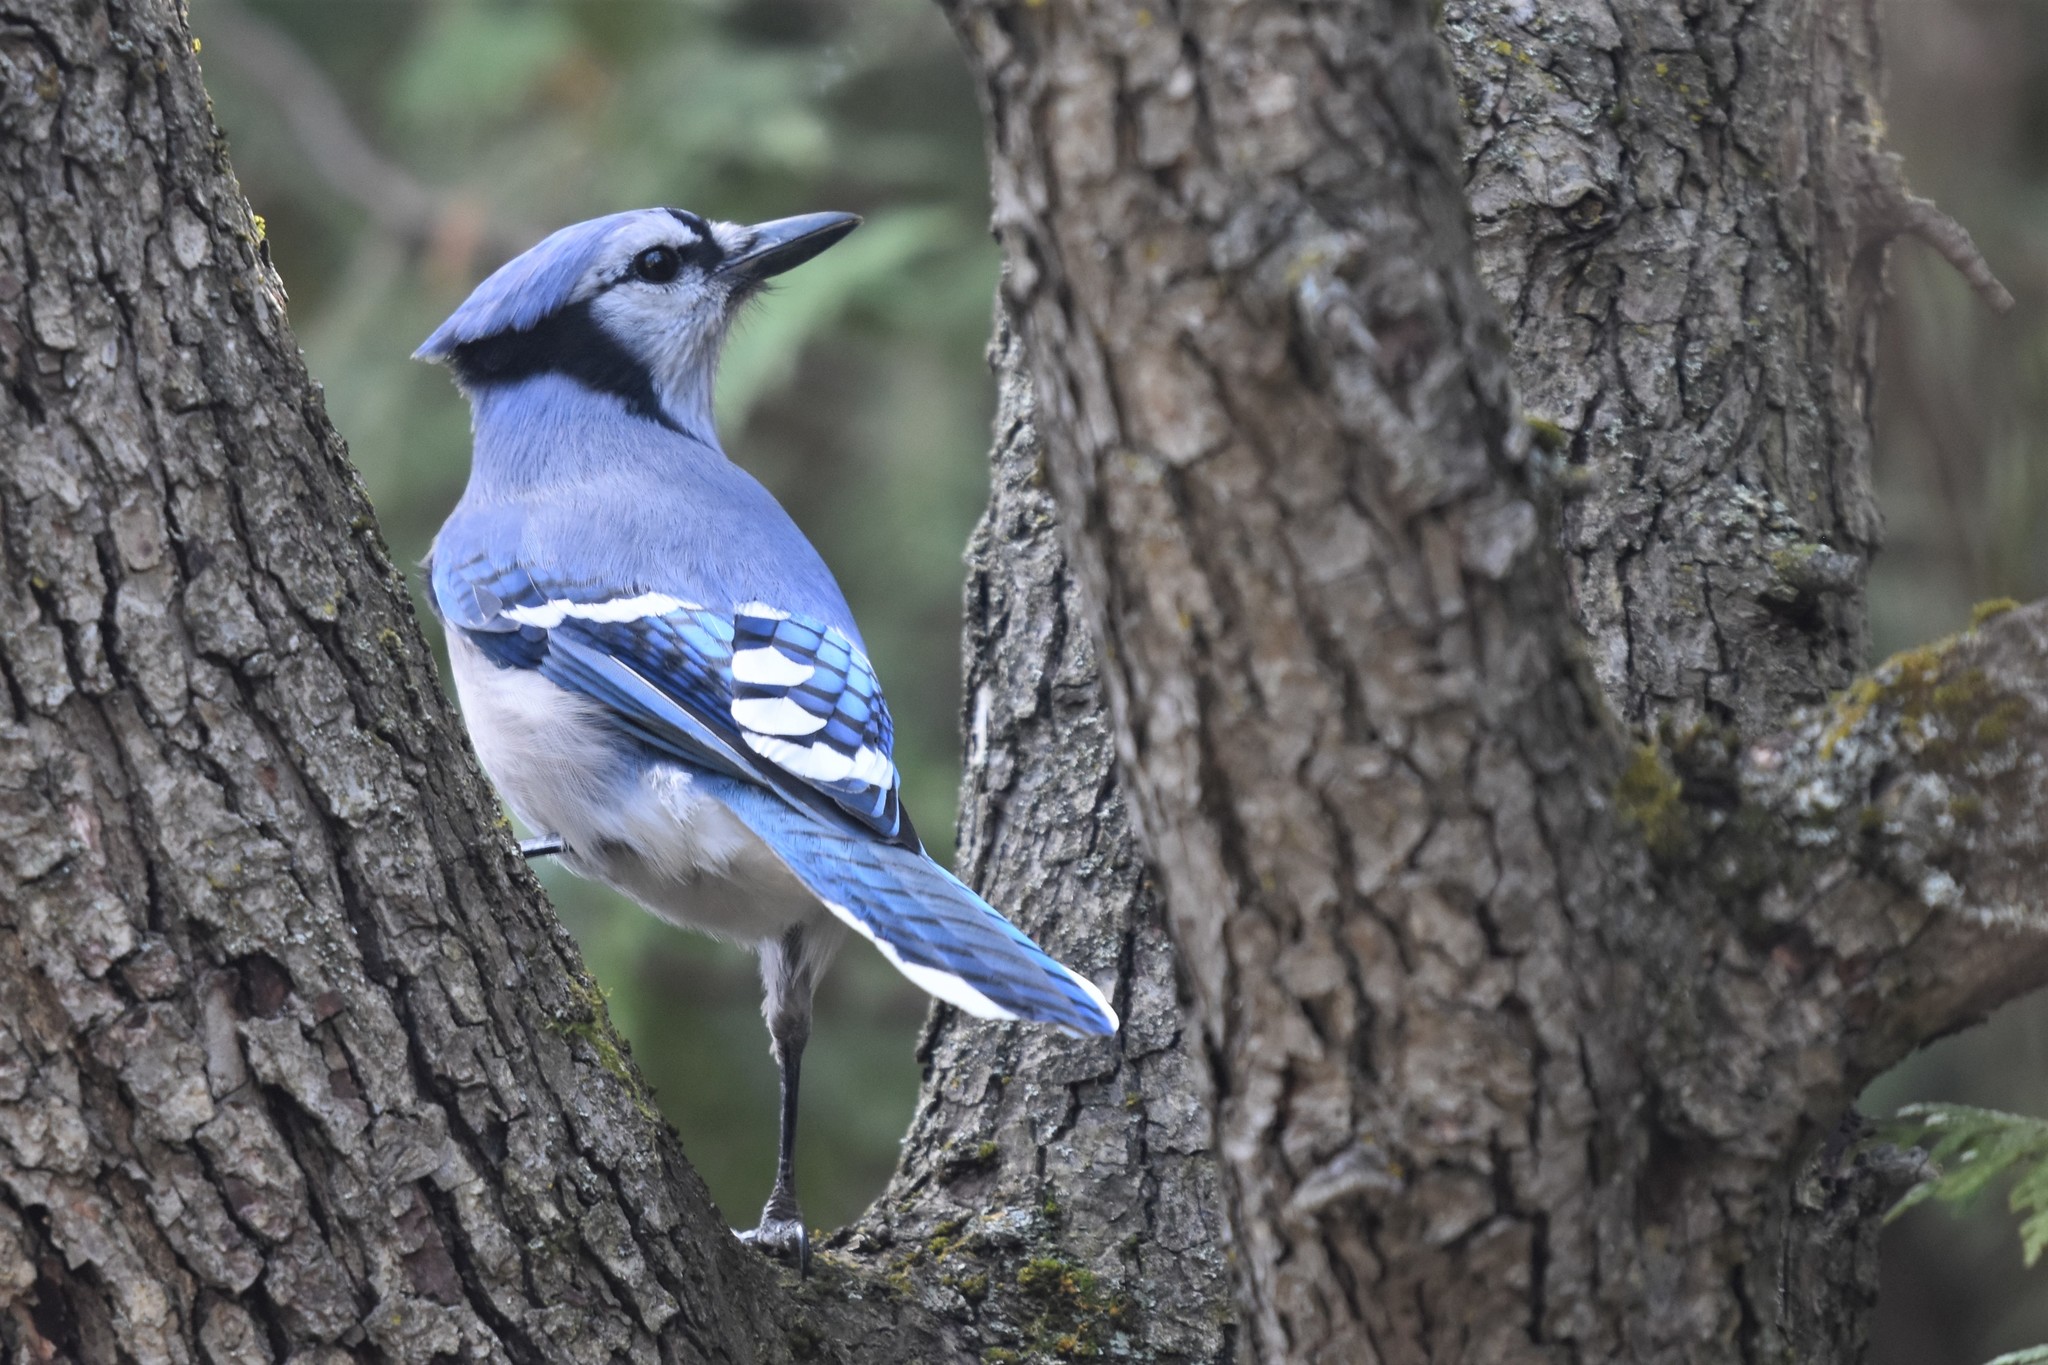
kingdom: Animalia
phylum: Chordata
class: Aves
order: Passeriformes
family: Corvidae
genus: Cyanocitta
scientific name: Cyanocitta cristata
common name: Blue jay
